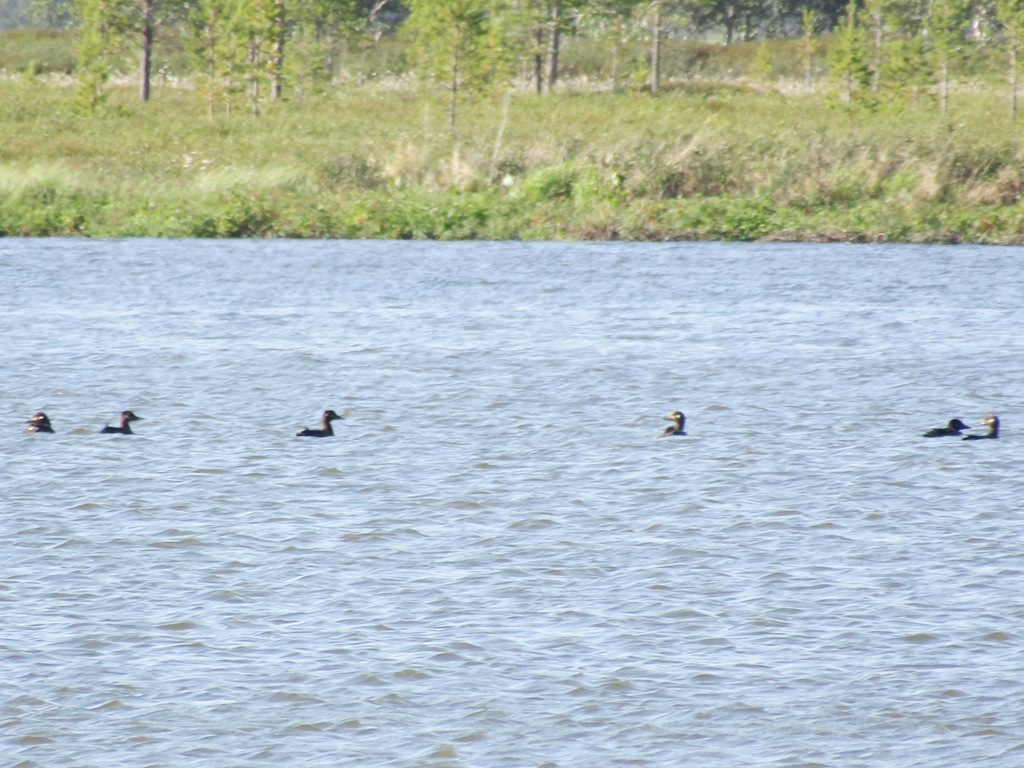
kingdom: Animalia
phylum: Chordata
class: Aves
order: Anseriformes
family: Anatidae
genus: Melanitta
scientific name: Melanitta fusca
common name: Velvet scoter
